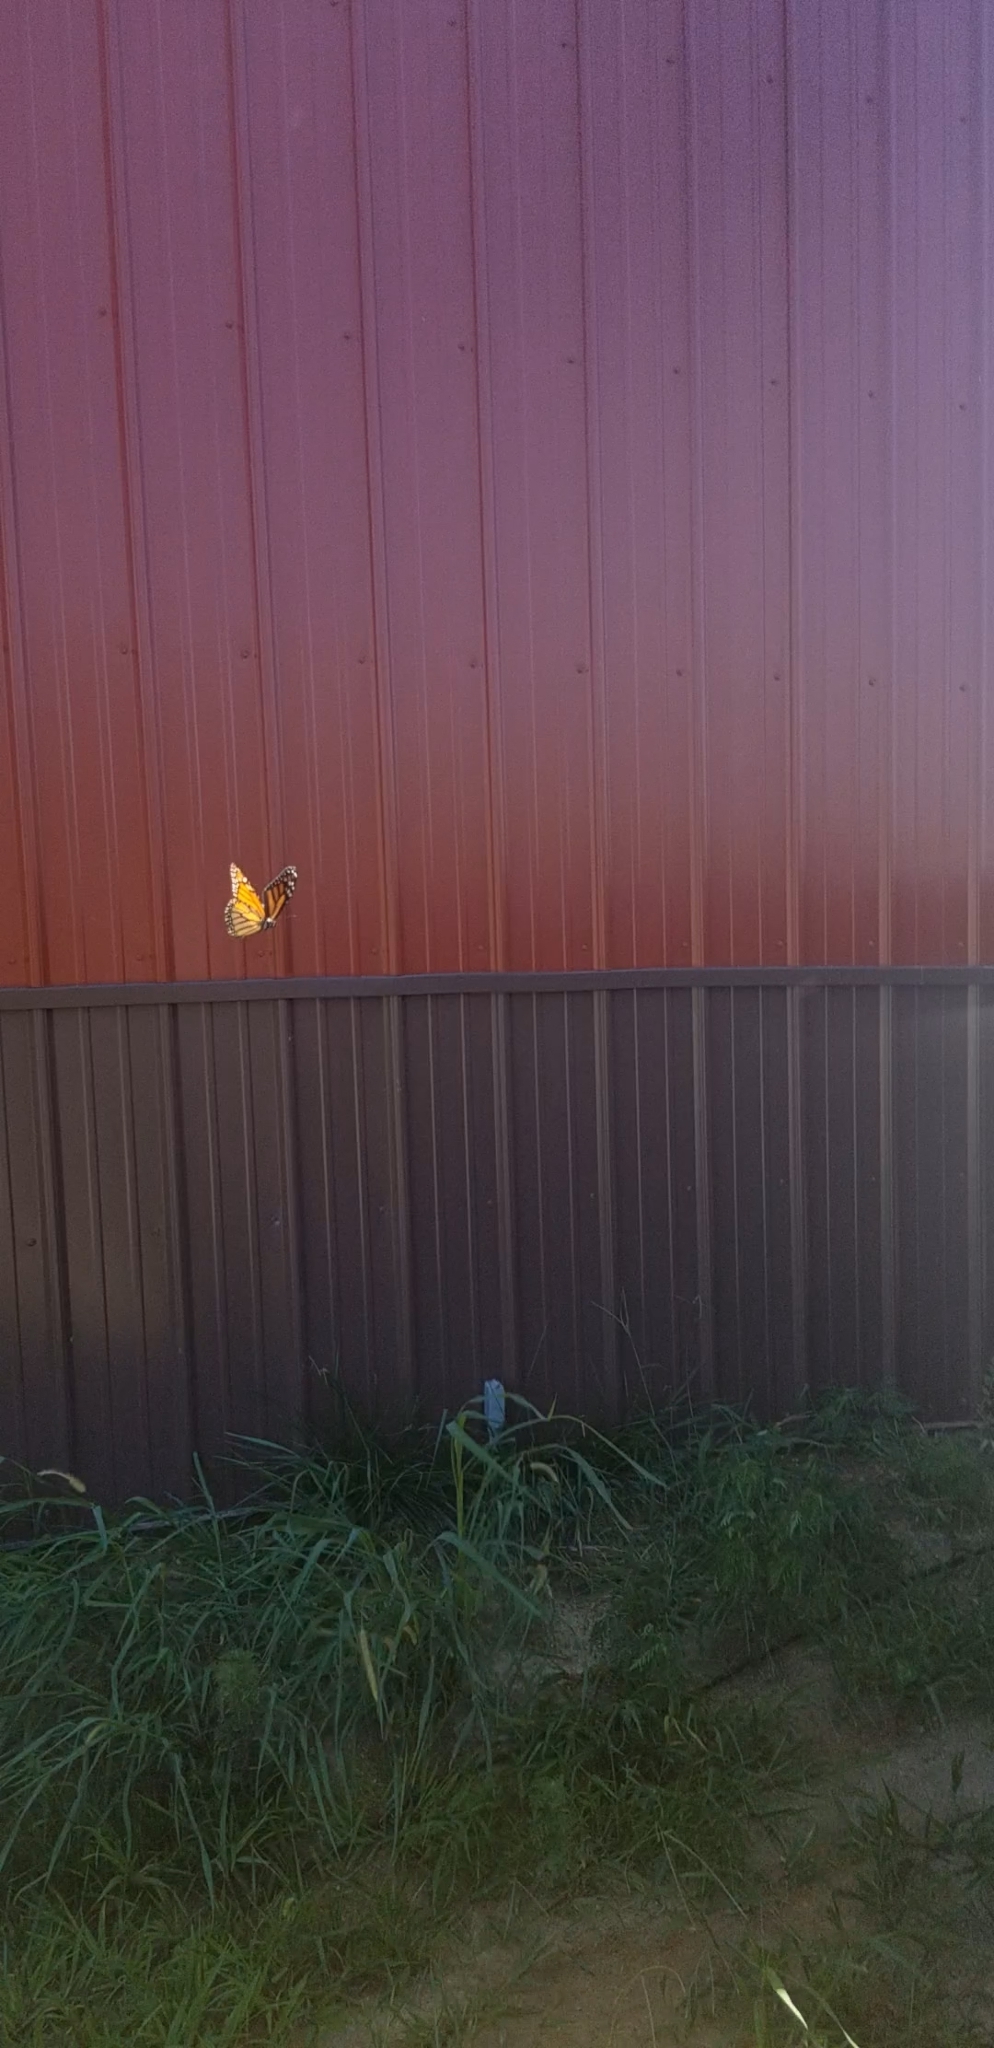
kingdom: Animalia
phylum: Arthropoda
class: Insecta
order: Lepidoptera
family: Nymphalidae
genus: Danaus
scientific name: Danaus plexippus
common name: Monarch
